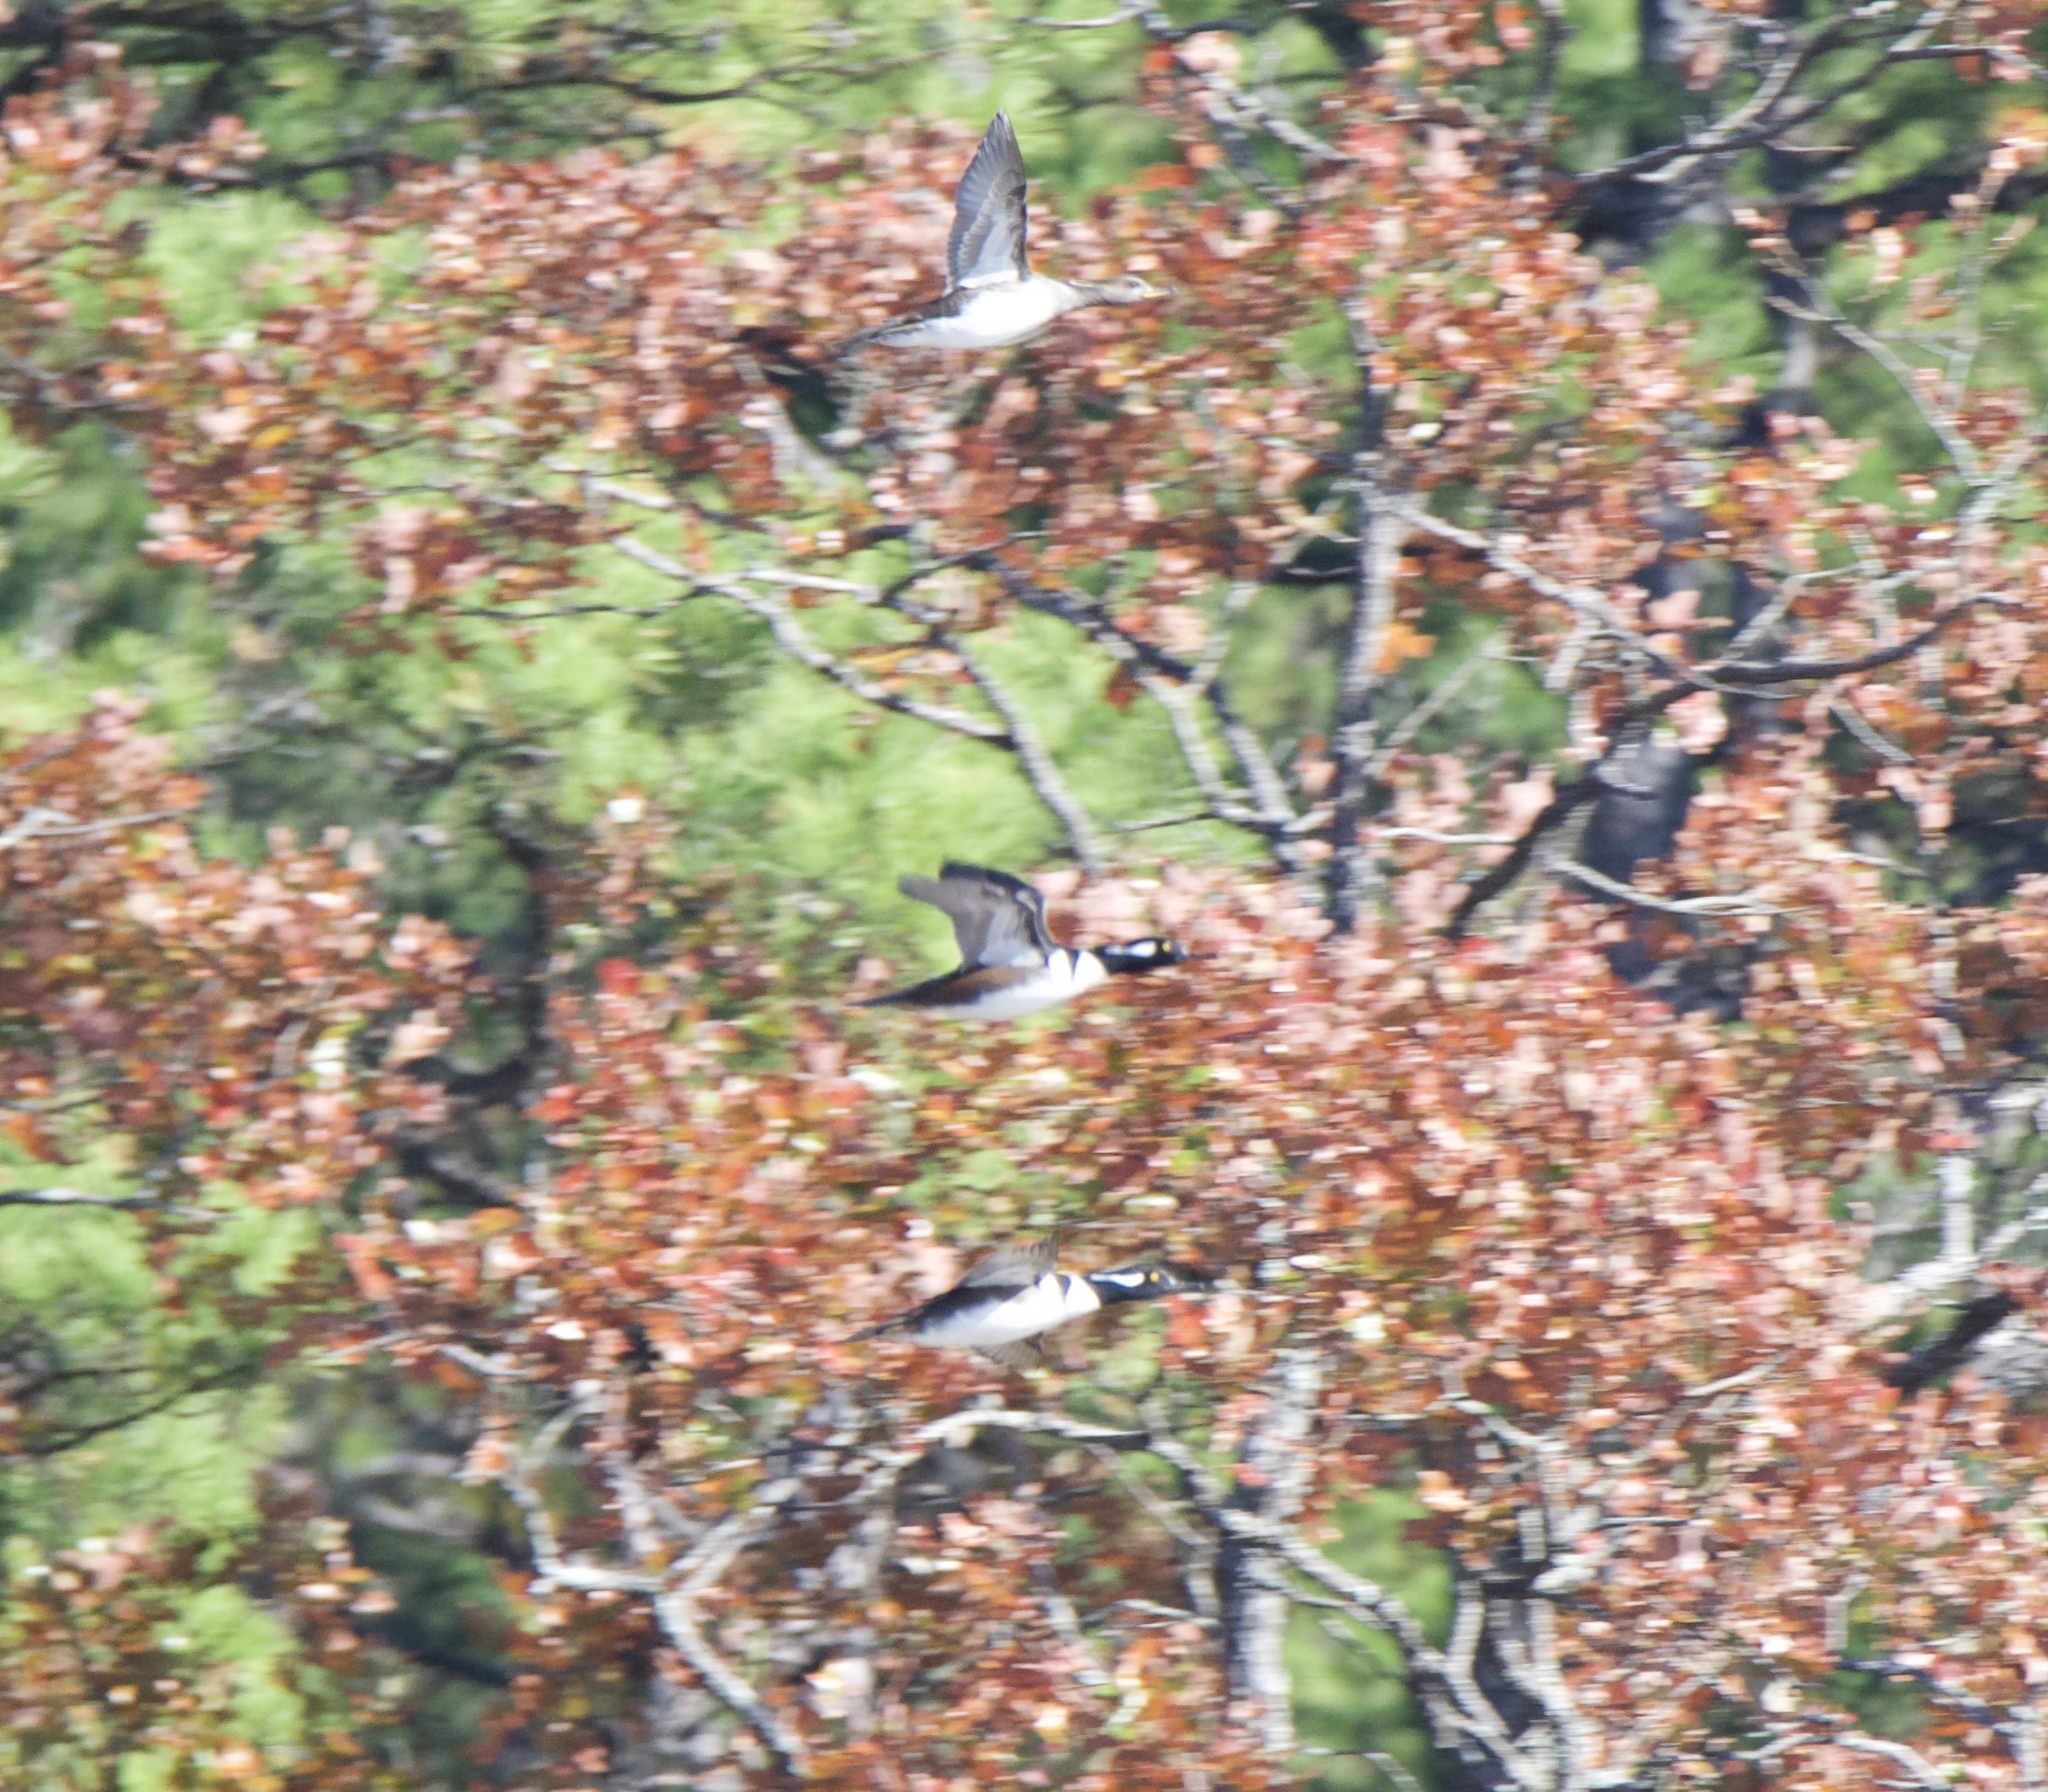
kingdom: Animalia
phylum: Chordata
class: Aves
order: Anseriformes
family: Anatidae
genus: Lophodytes
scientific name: Lophodytes cucullatus
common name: Hooded merganser
